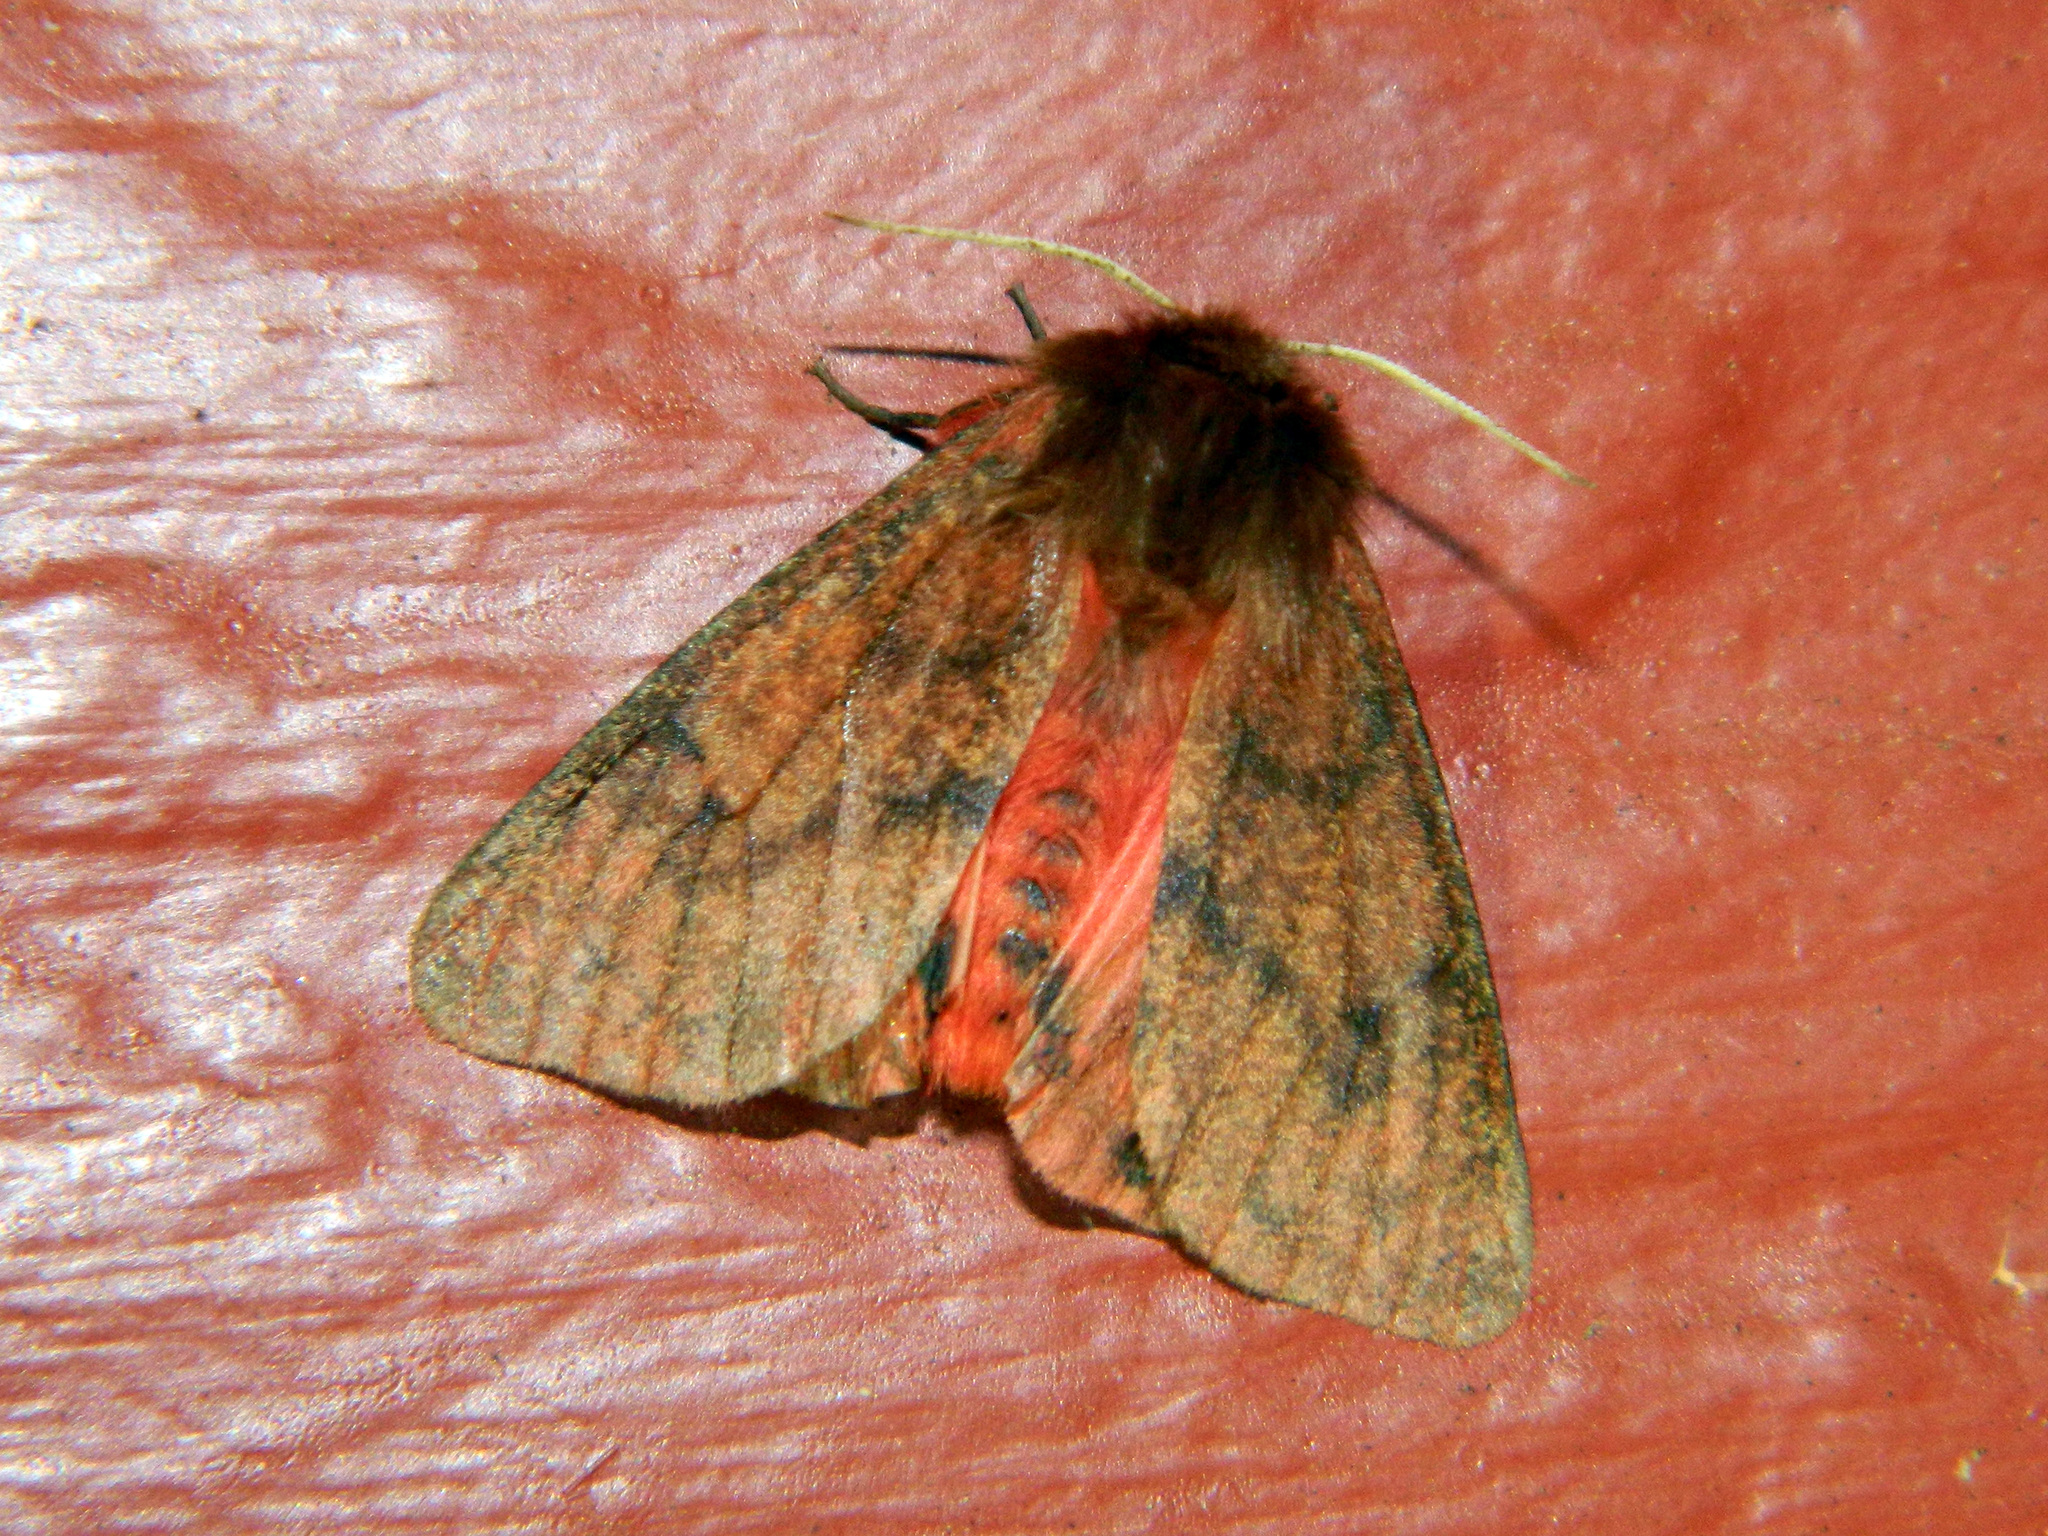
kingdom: Animalia
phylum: Arthropoda
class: Insecta
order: Lepidoptera
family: Erebidae
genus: Phragmatobia
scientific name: Phragmatobia assimilans
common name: Large ruby tiger moth
